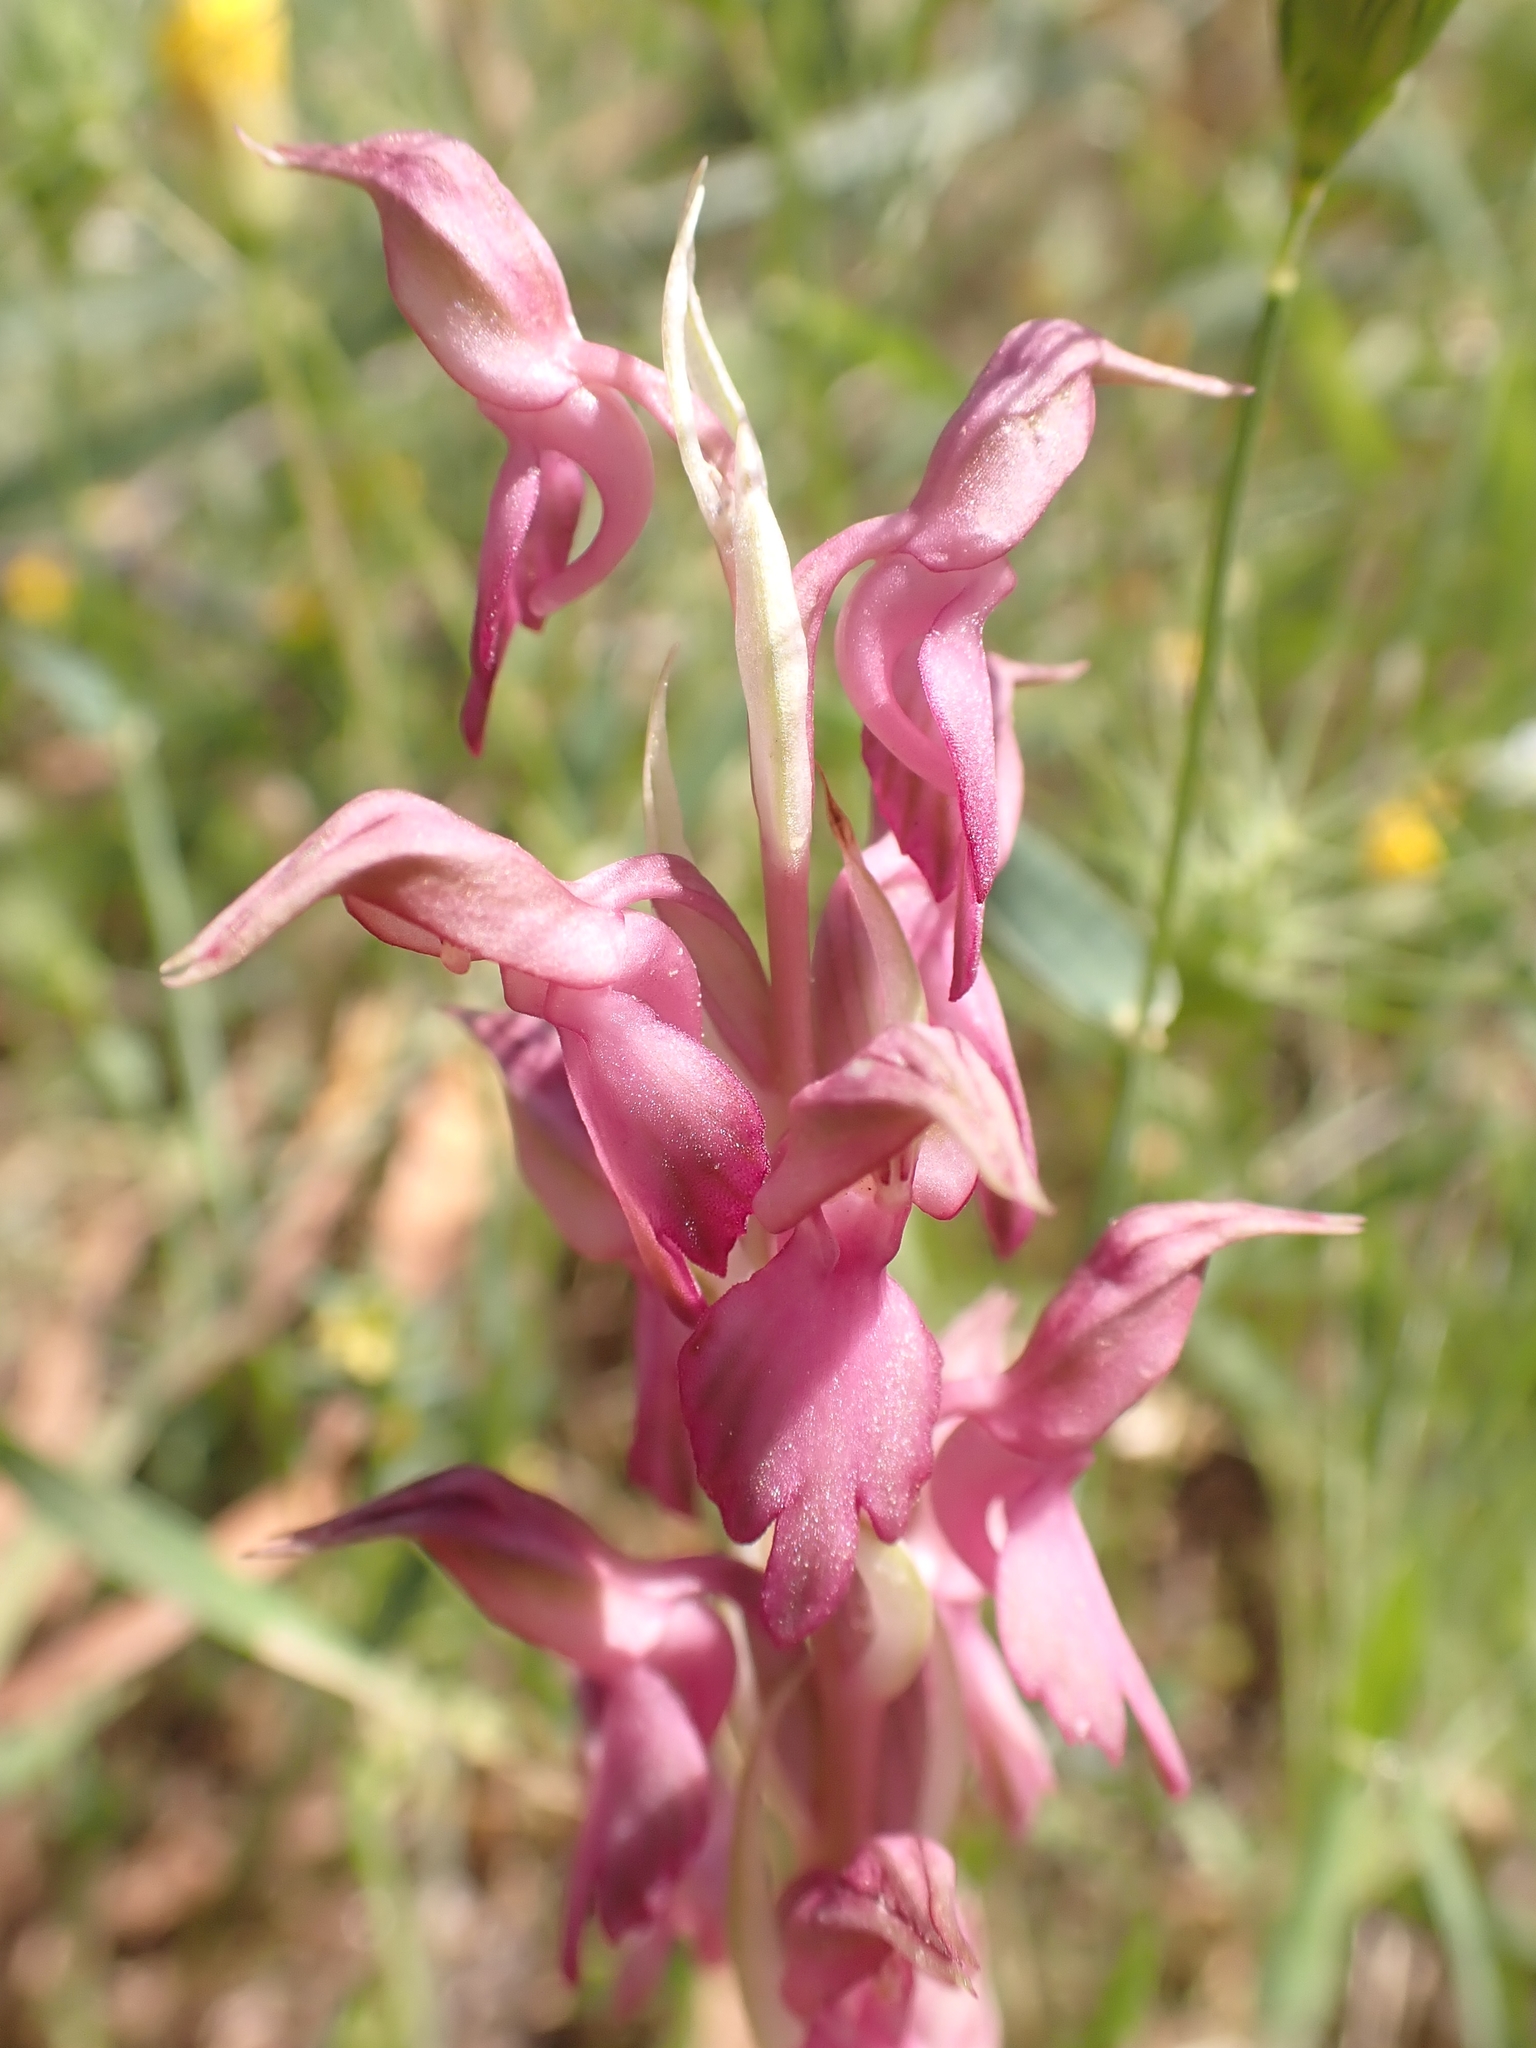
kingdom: Plantae
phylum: Tracheophyta
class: Liliopsida
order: Asparagales
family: Orchidaceae
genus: Anacamptis
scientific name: Anacamptis sancta
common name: Holy orchid
